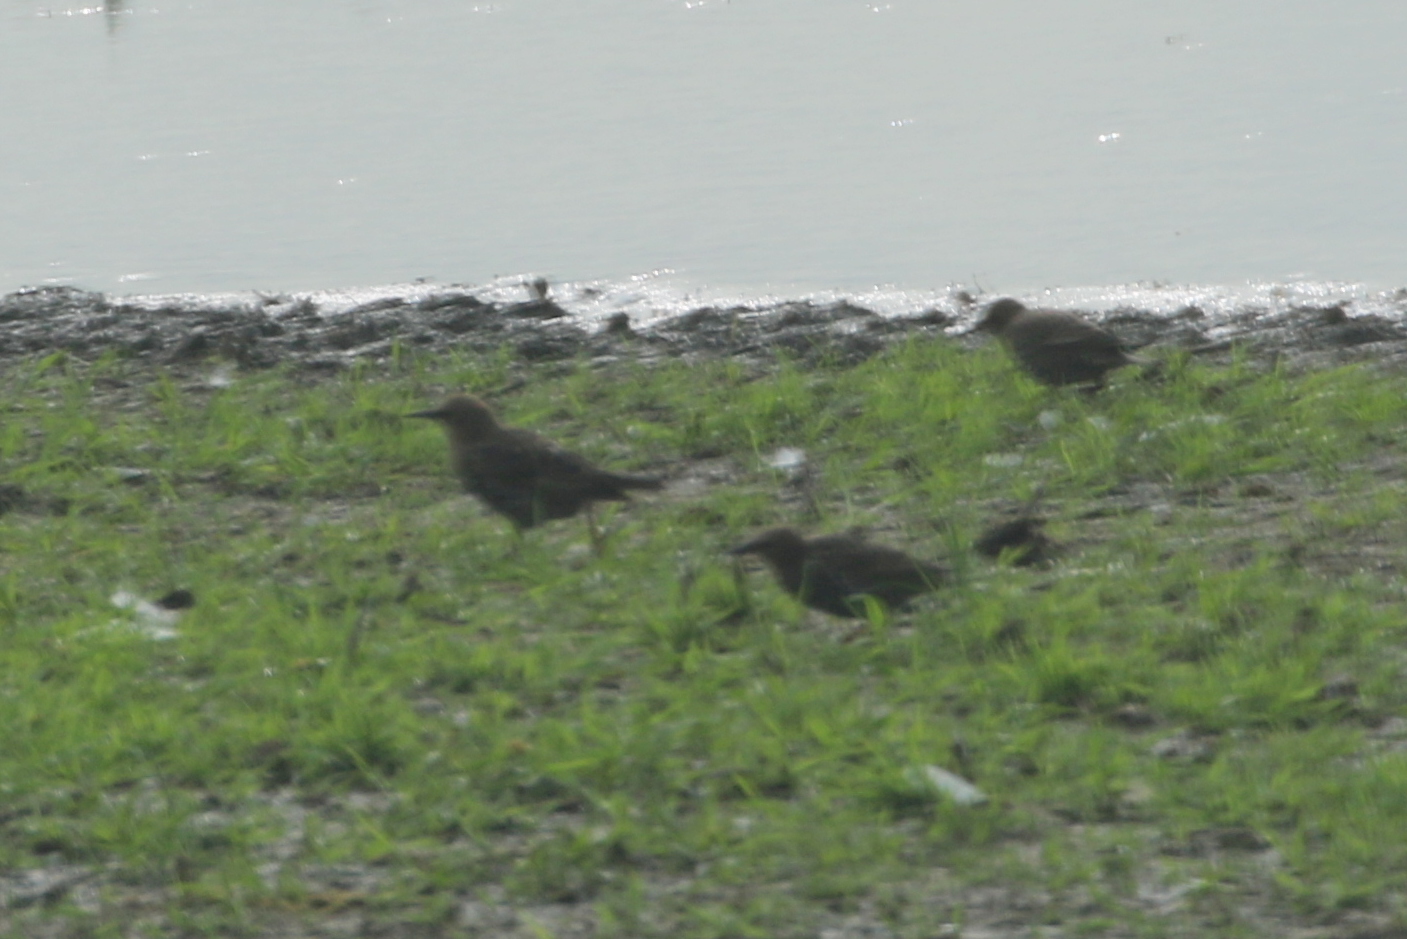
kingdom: Animalia
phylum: Chordata
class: Aves
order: Passeriformes
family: Sturnidae
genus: Sturnus
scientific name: Sturnus vulgaris
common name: Common starling
